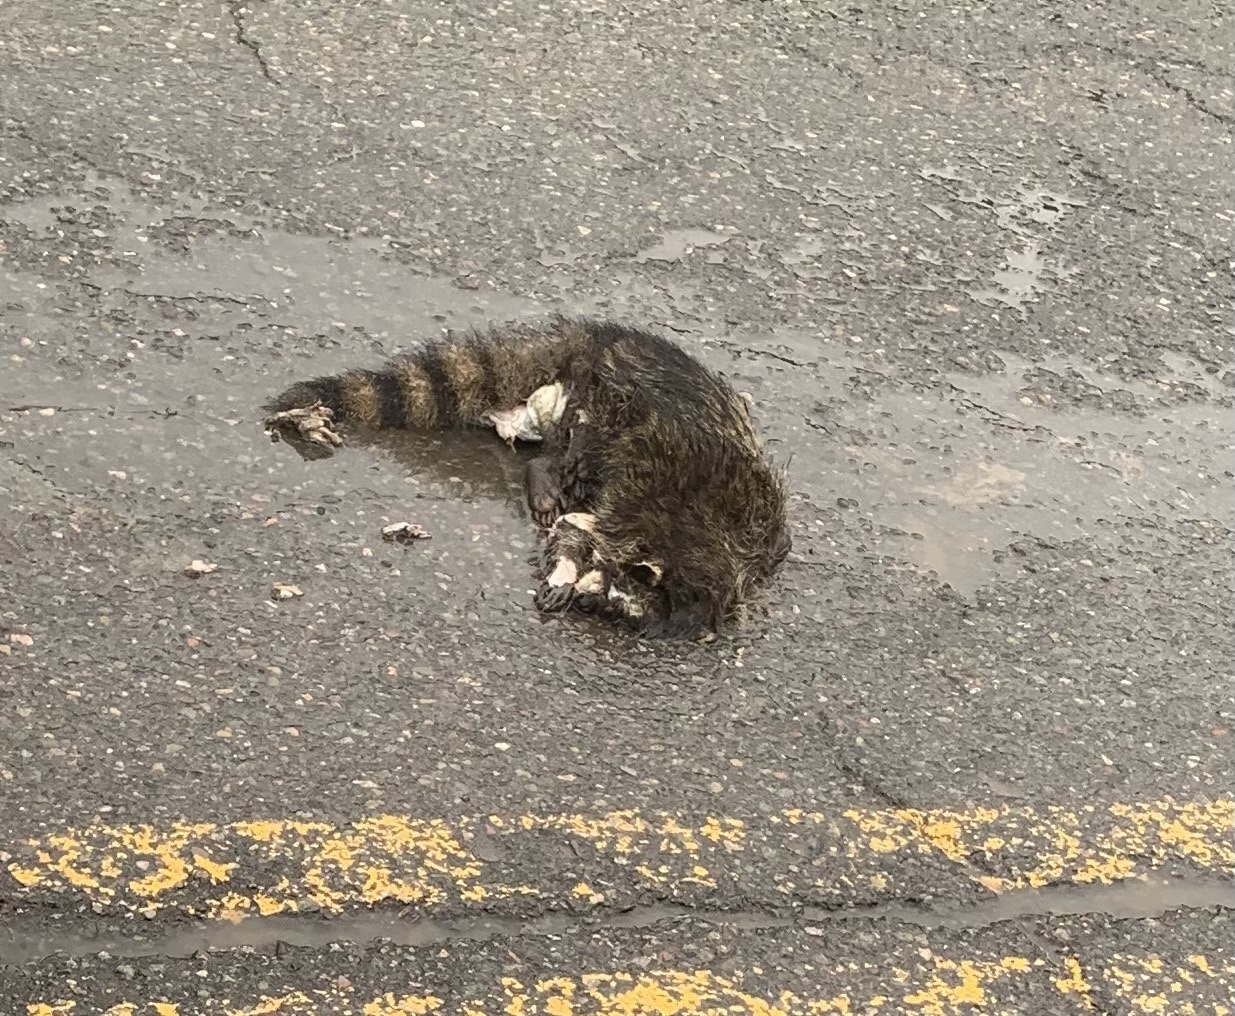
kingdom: Animalia
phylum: Chordata
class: Mammalia
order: Carnivora
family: Procyonidae
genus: Procyon
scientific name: Procyon lotor
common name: Raccoon
